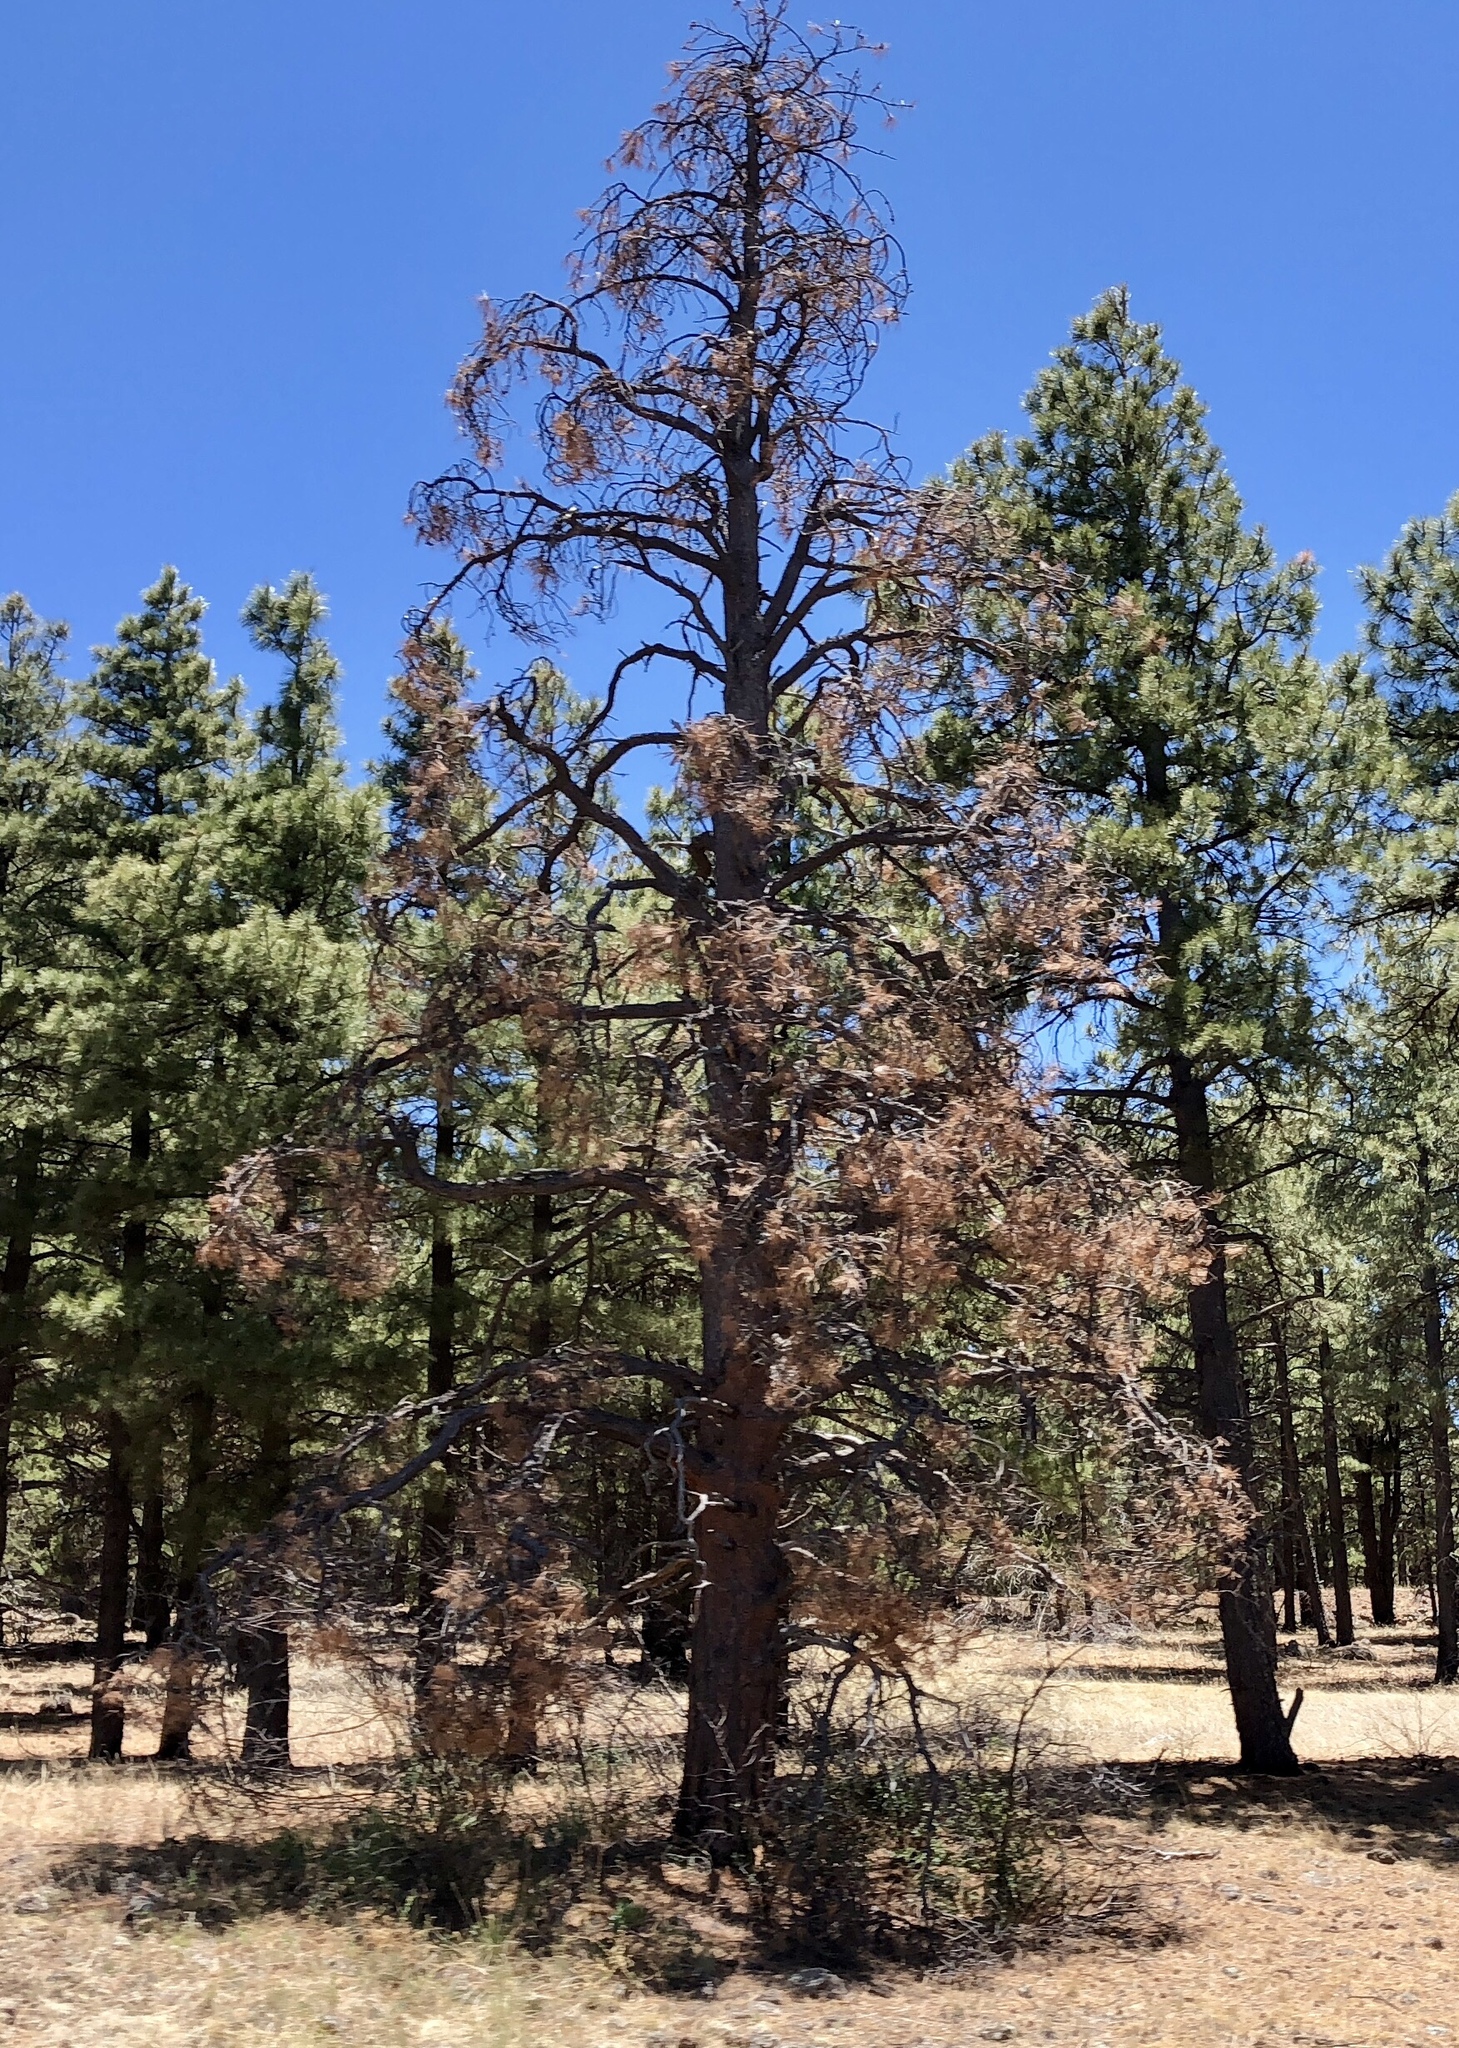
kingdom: Plantae
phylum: Tracheophyta
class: Pinopsida
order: Pinales
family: Pinaceae
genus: Pinus
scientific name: Pinus ponderosa
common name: Western yellow-pine
